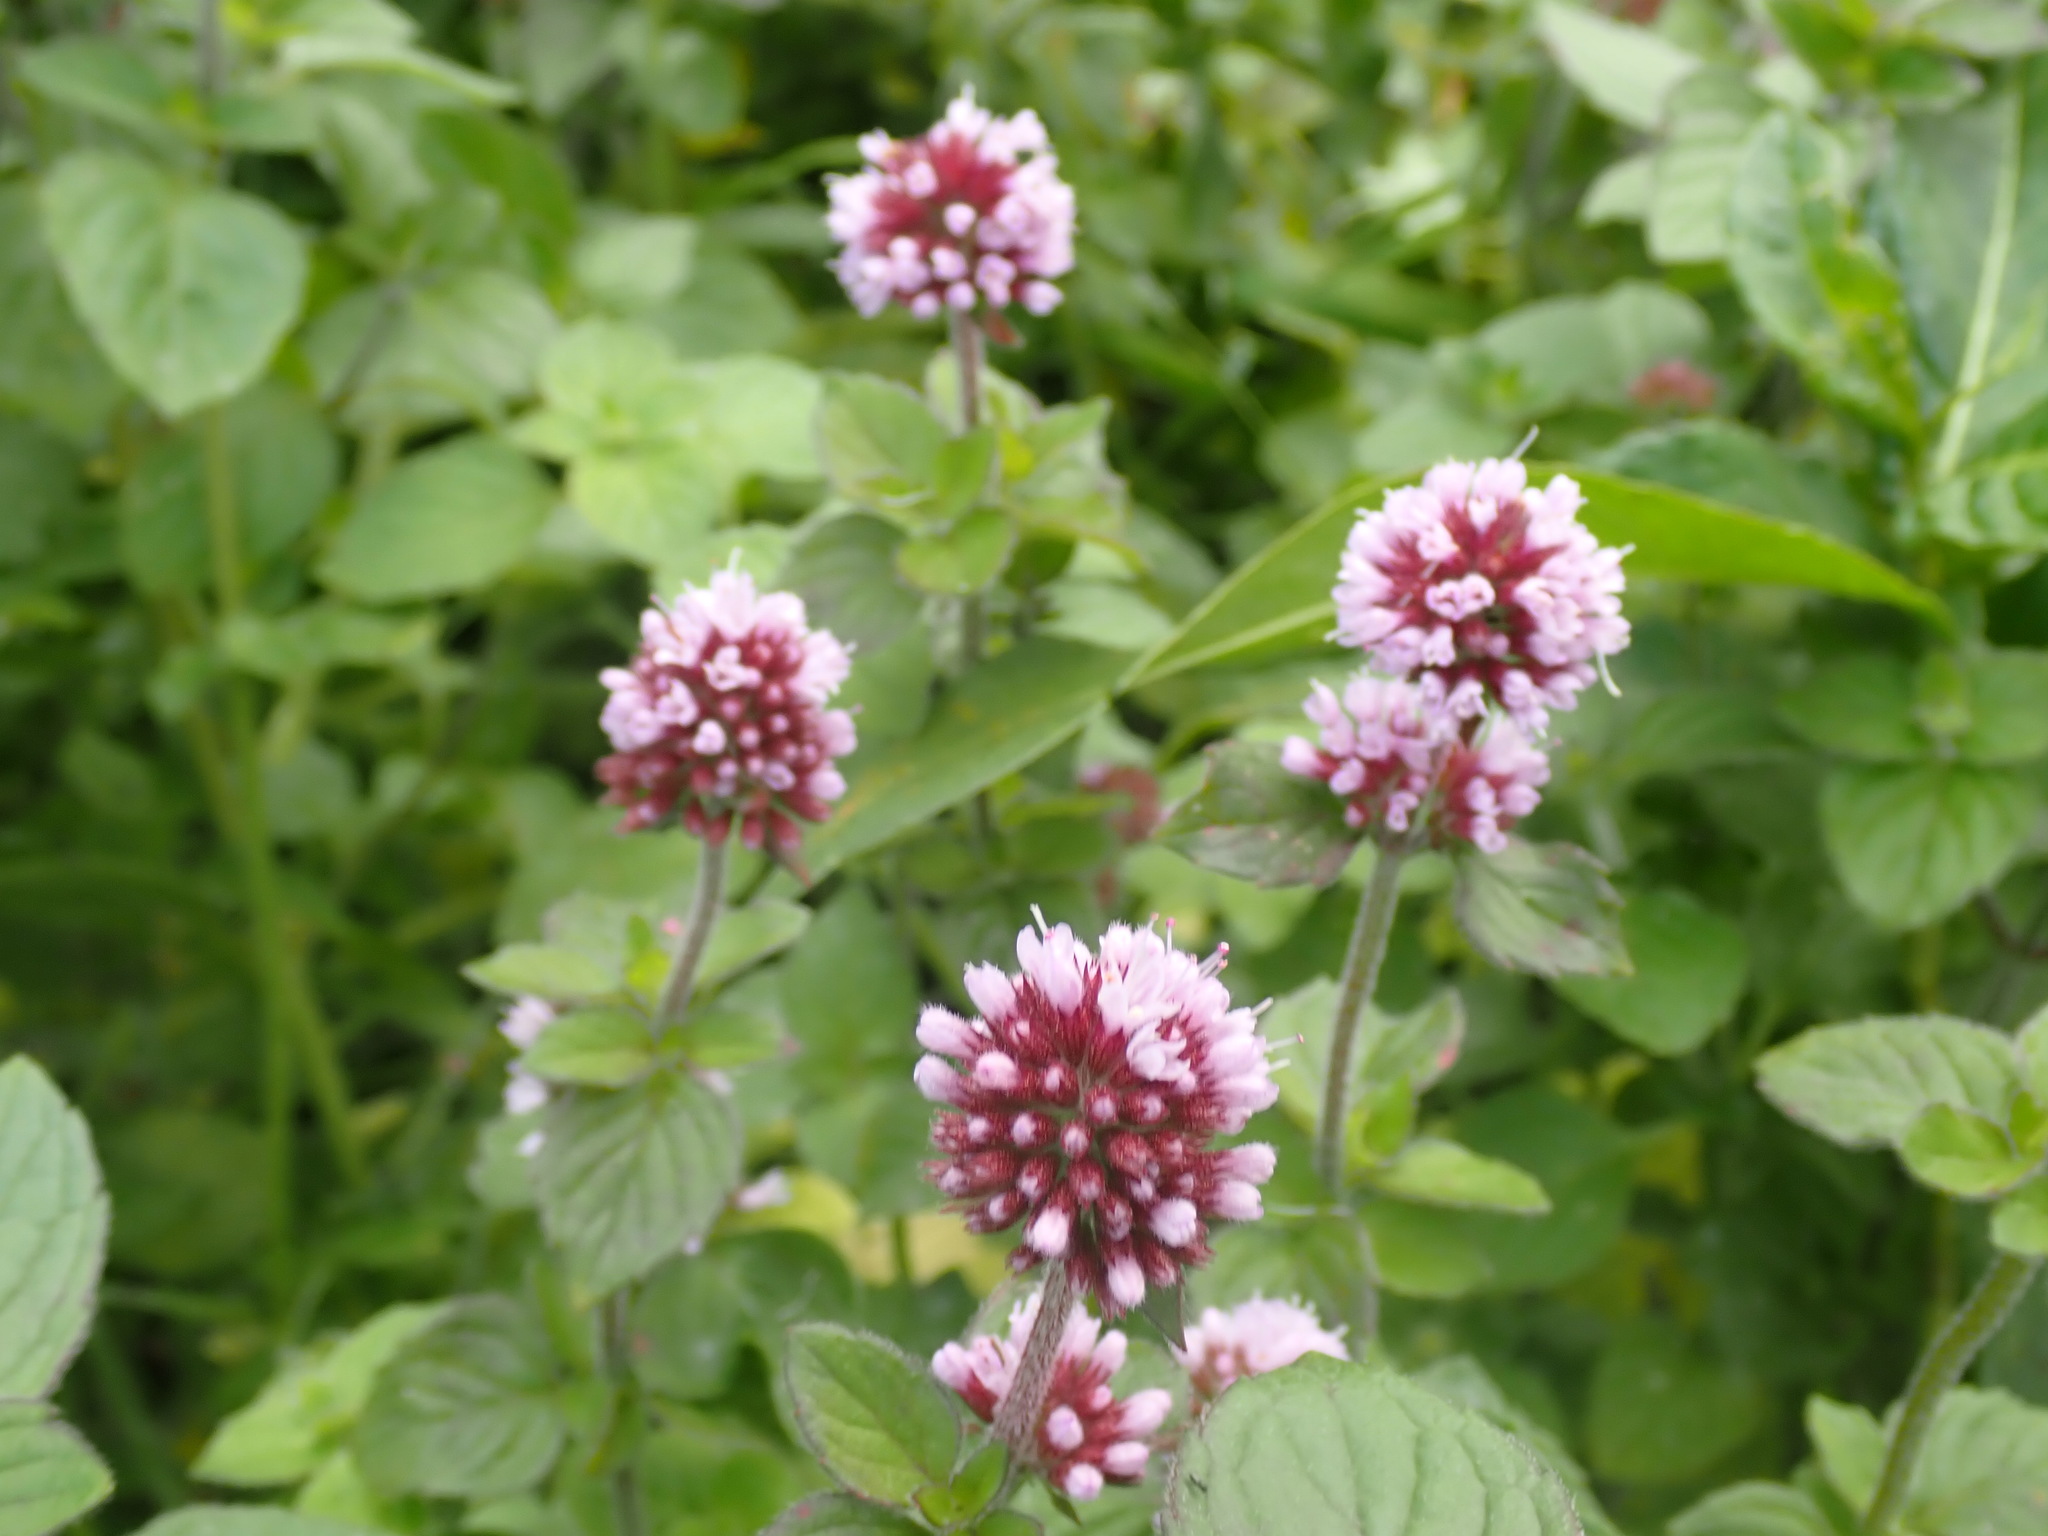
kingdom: Plantae
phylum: Tracheophyta
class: Magnoliopsida
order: Lamiales
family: Lamiaceae
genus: Mentha
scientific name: Mentha aquatica
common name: Water mint
